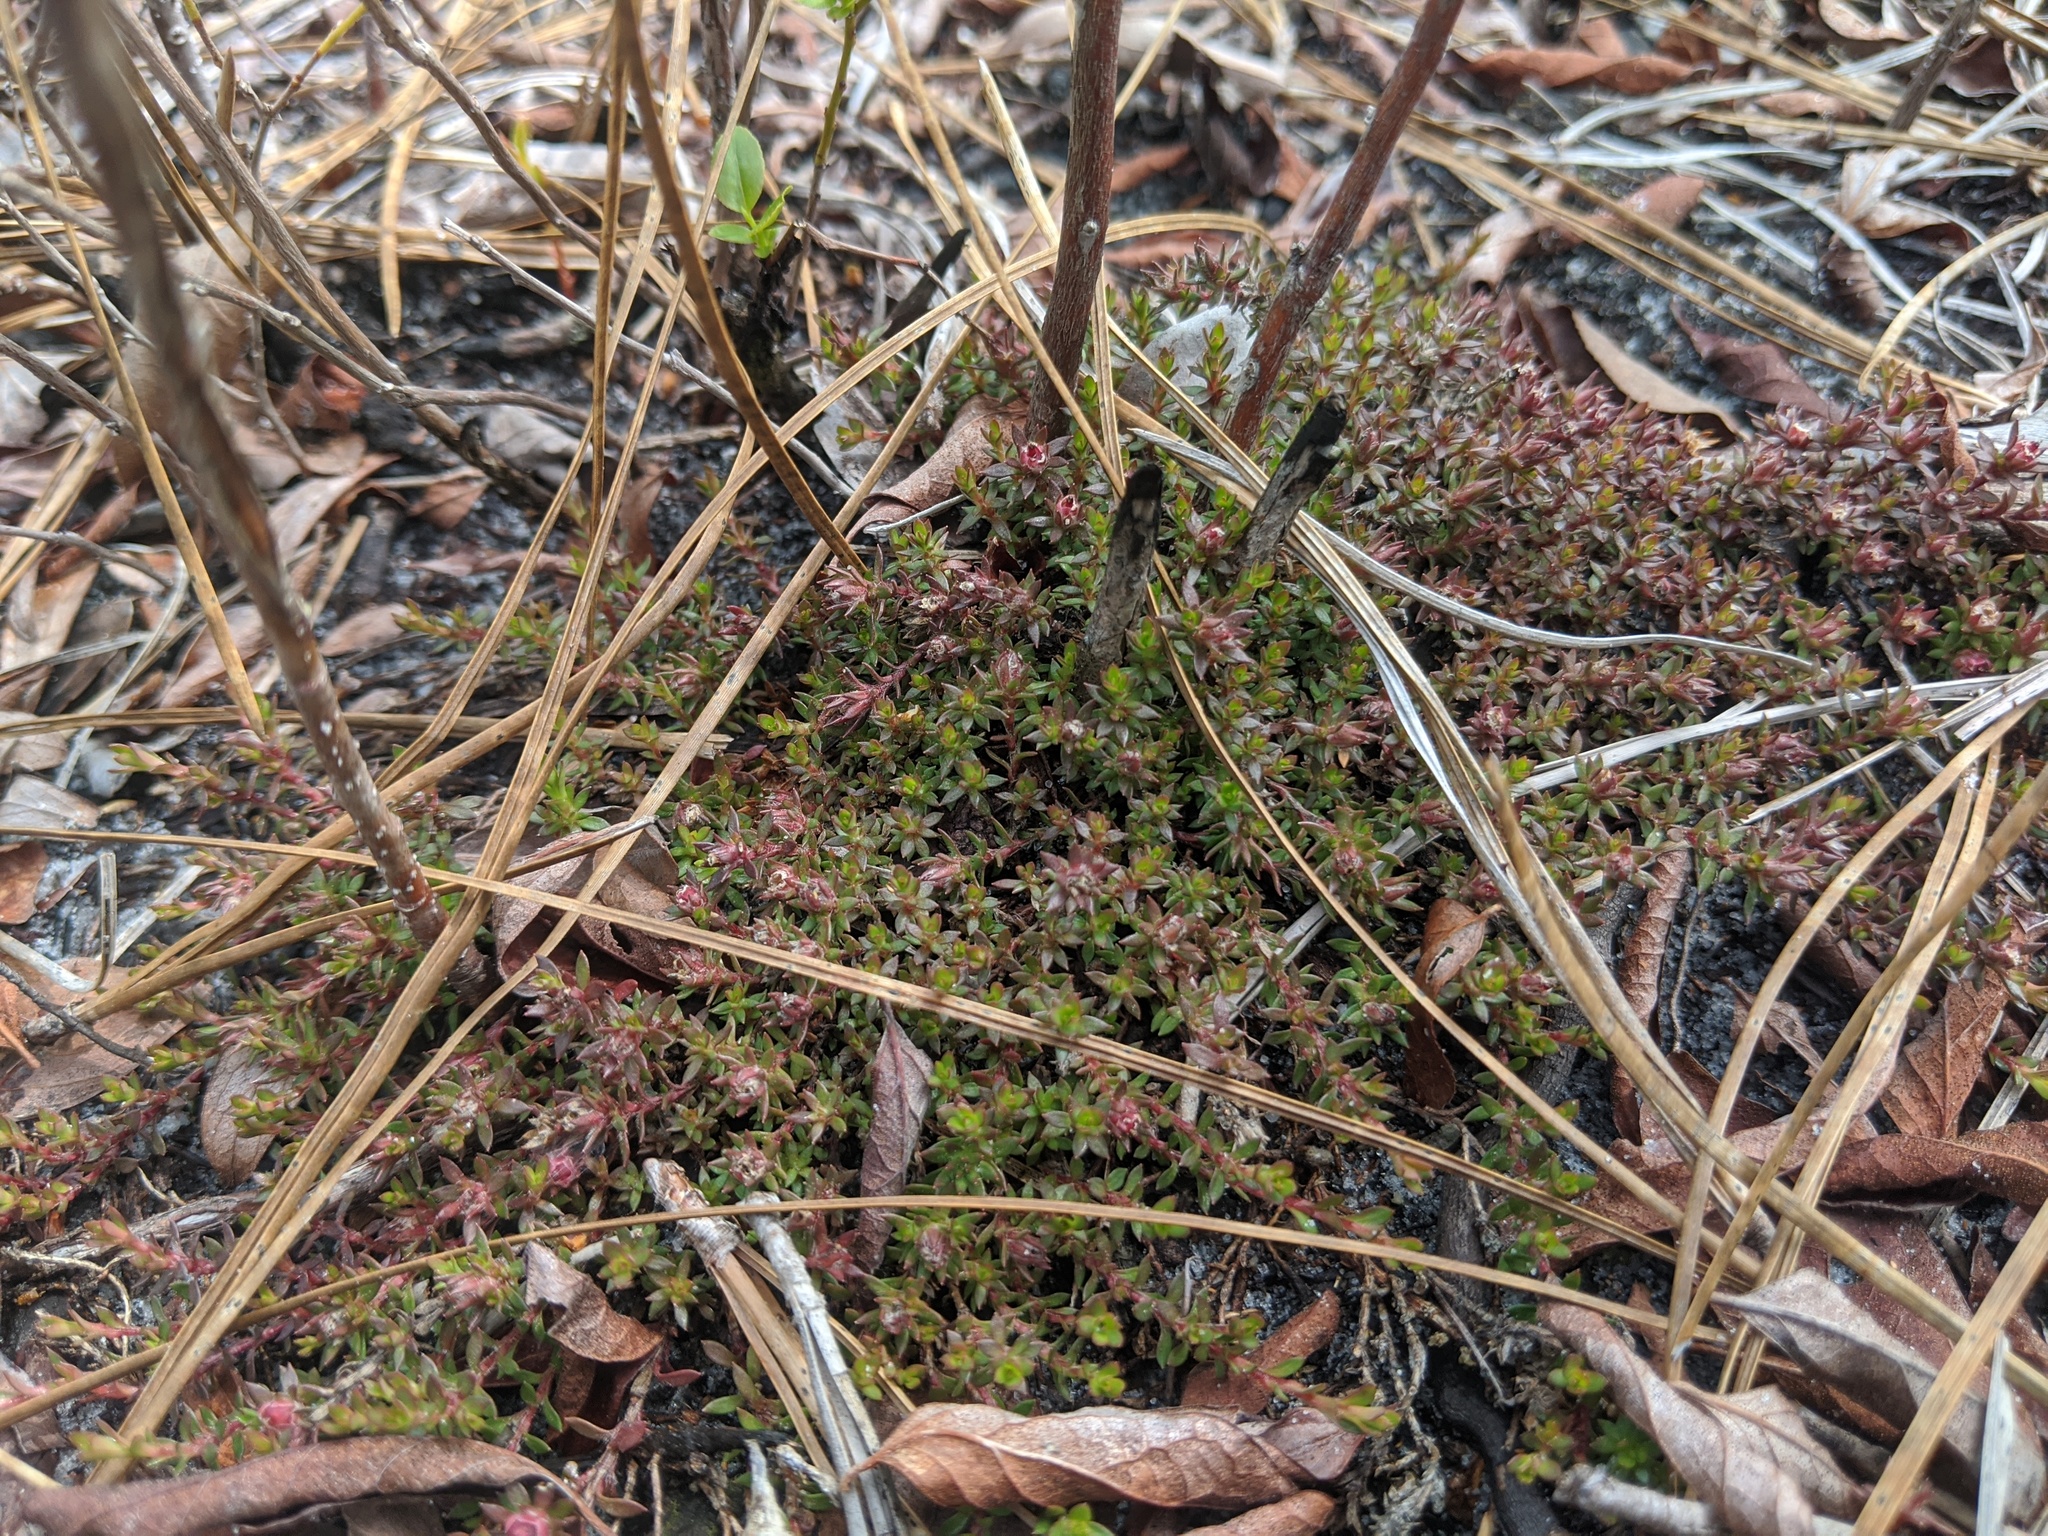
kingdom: Plantae
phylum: Tracheophyta
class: Magnoliopsida
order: Ericales
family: Diapensiaceae
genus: Pyxidanthera
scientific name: Pyxidanthera barbulata
